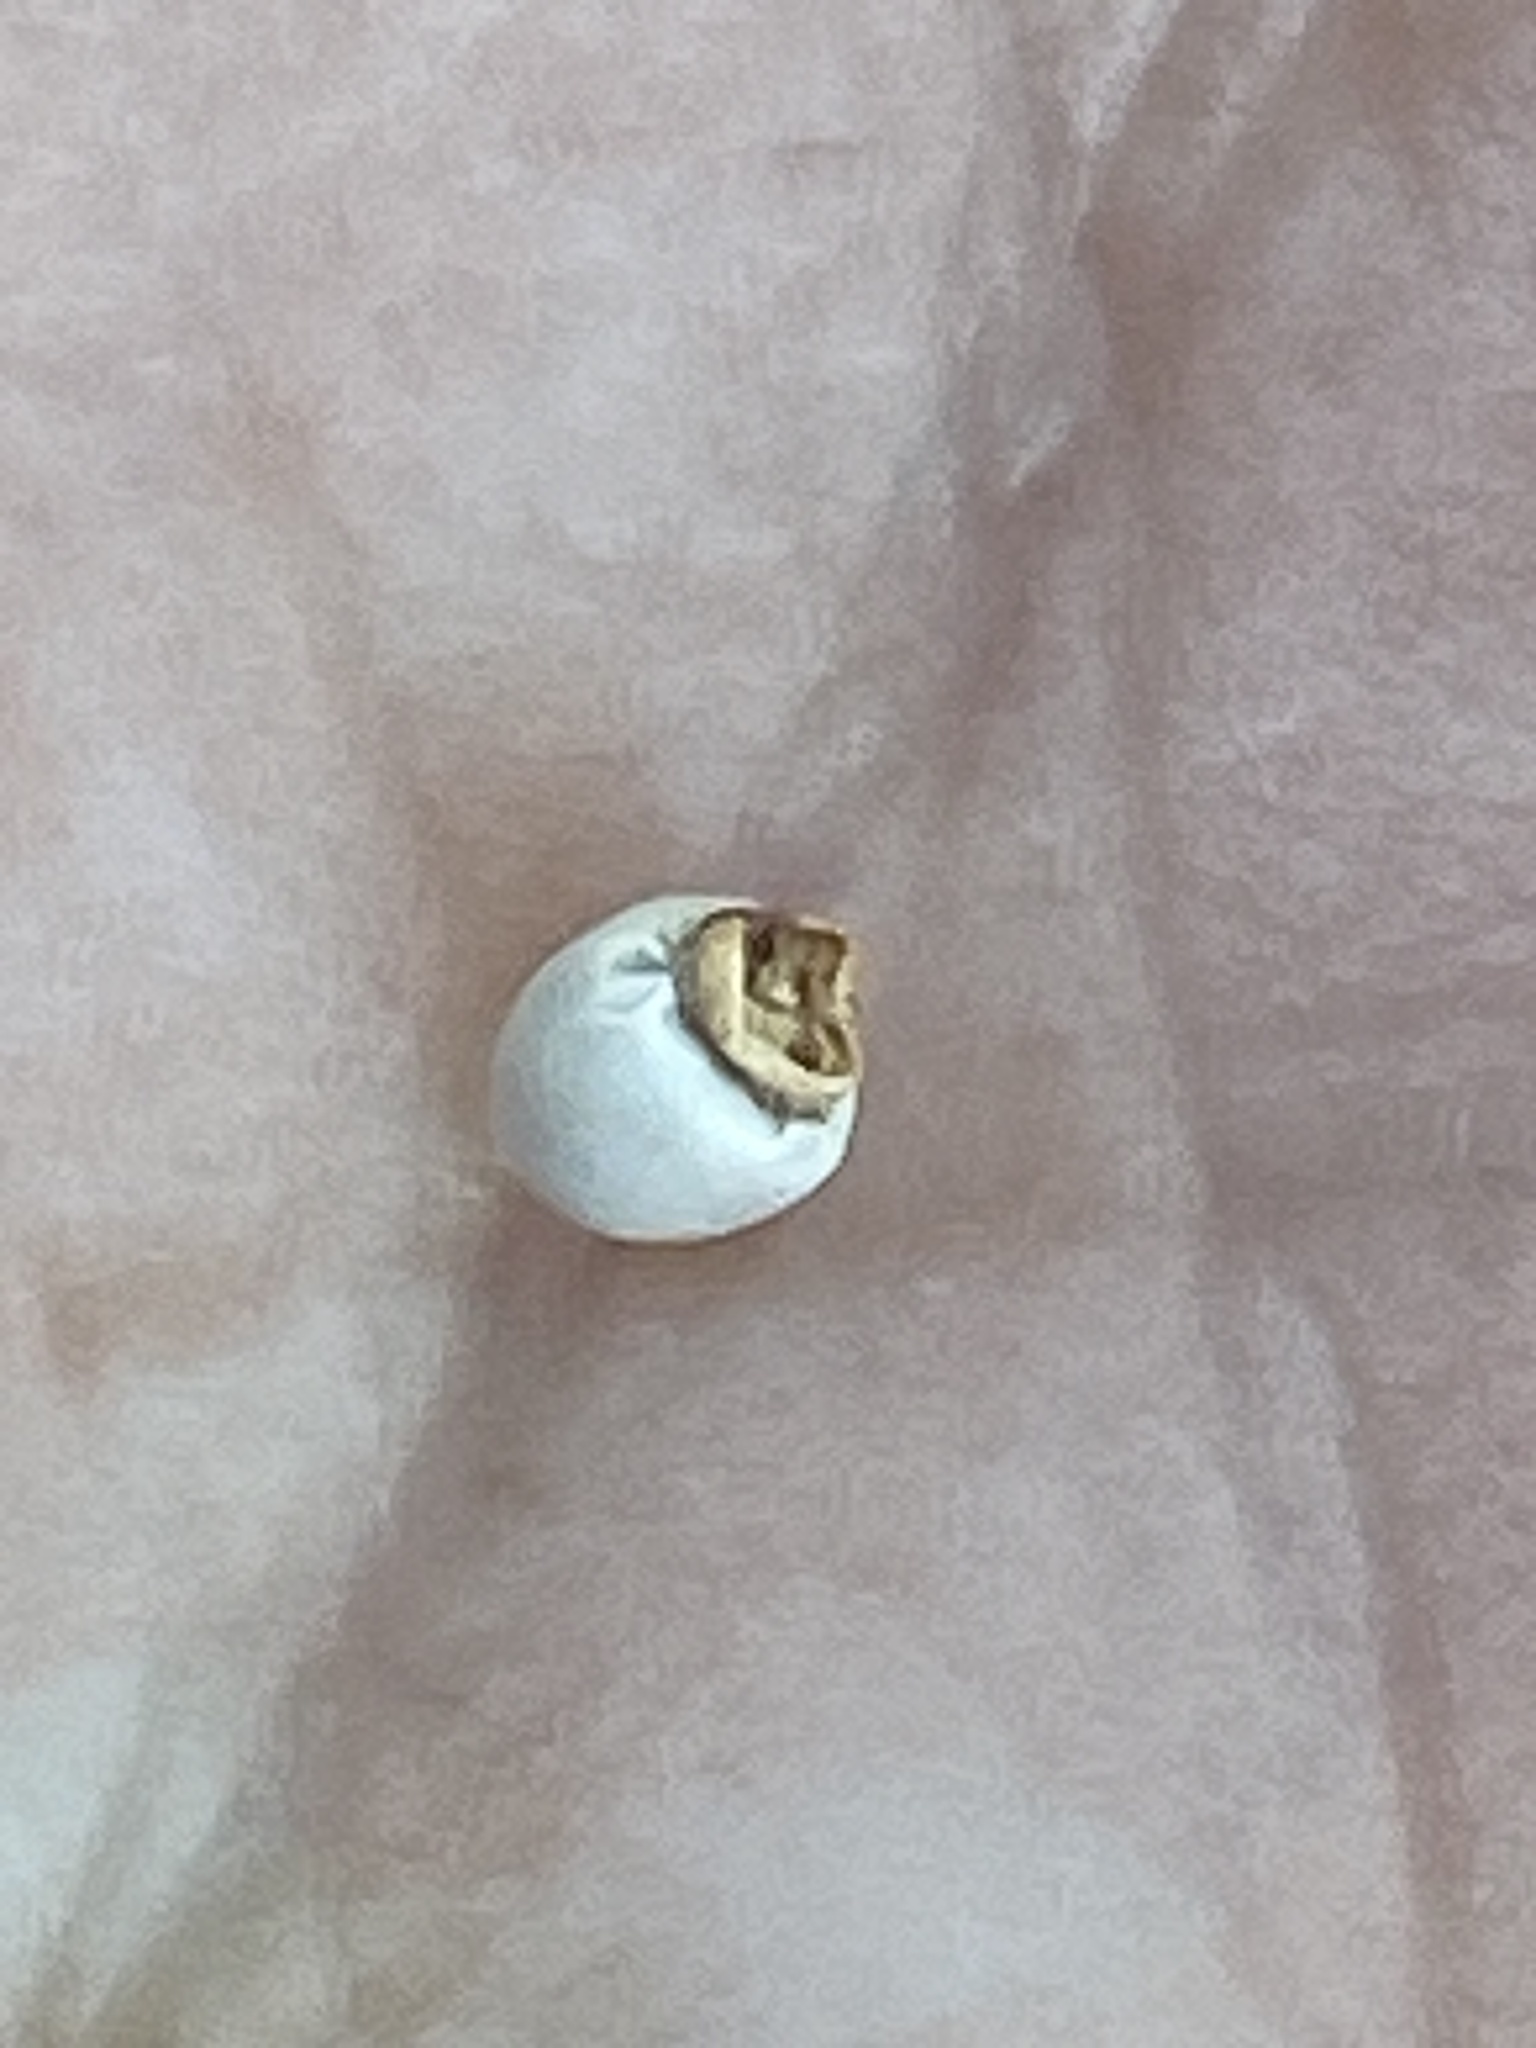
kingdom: Plantae
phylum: Tracheophyta
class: Liliopsida
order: Poales
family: Cyperaceae
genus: Scleria
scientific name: Scleria oligantha
